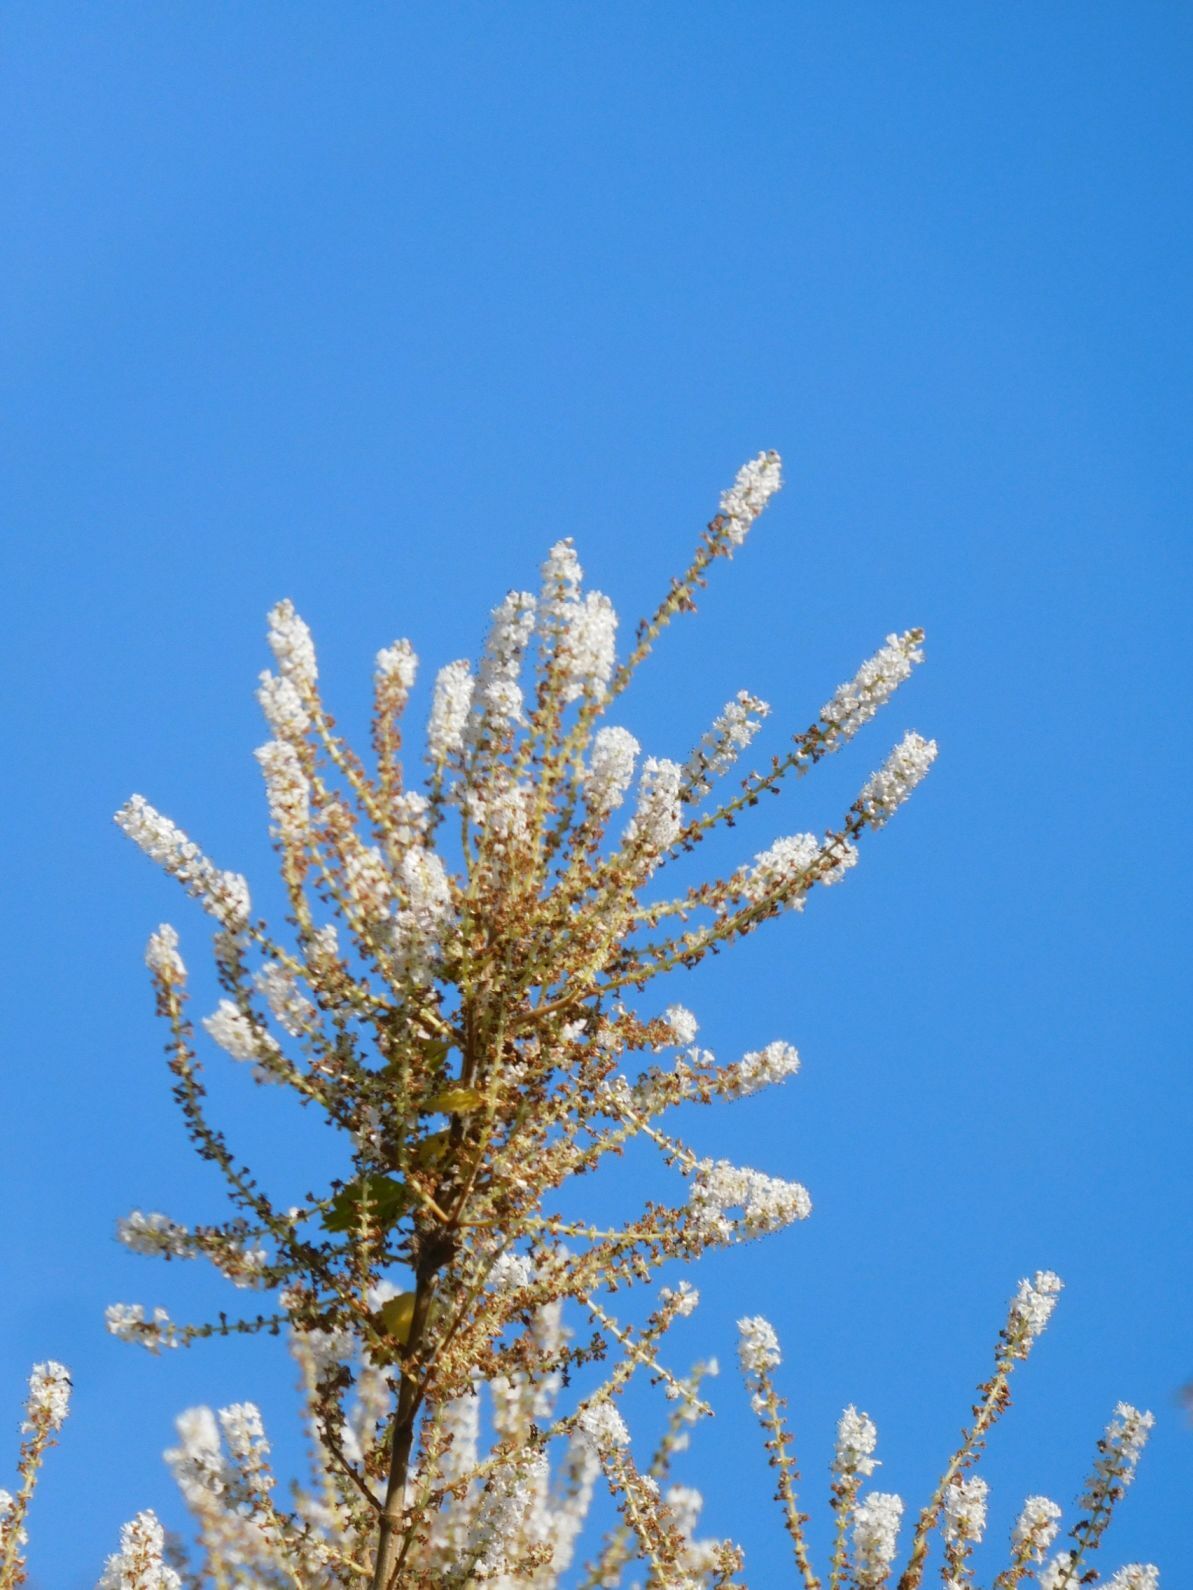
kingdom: Plantae
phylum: Tracheophyta
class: Magnoliopsida
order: Lamiales
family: Lamiaceae
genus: Tetradenia
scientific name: Tetradenia riparia
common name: Gingerbush
